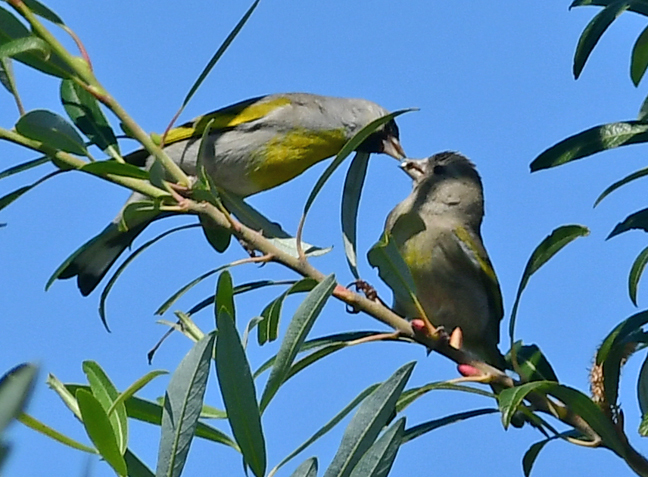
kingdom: Animalia
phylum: Chordata
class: Aves
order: Passeriformes
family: Fringillidae
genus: Spinus
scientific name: Spinus lawrencei
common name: Lawrence's goldfinch
